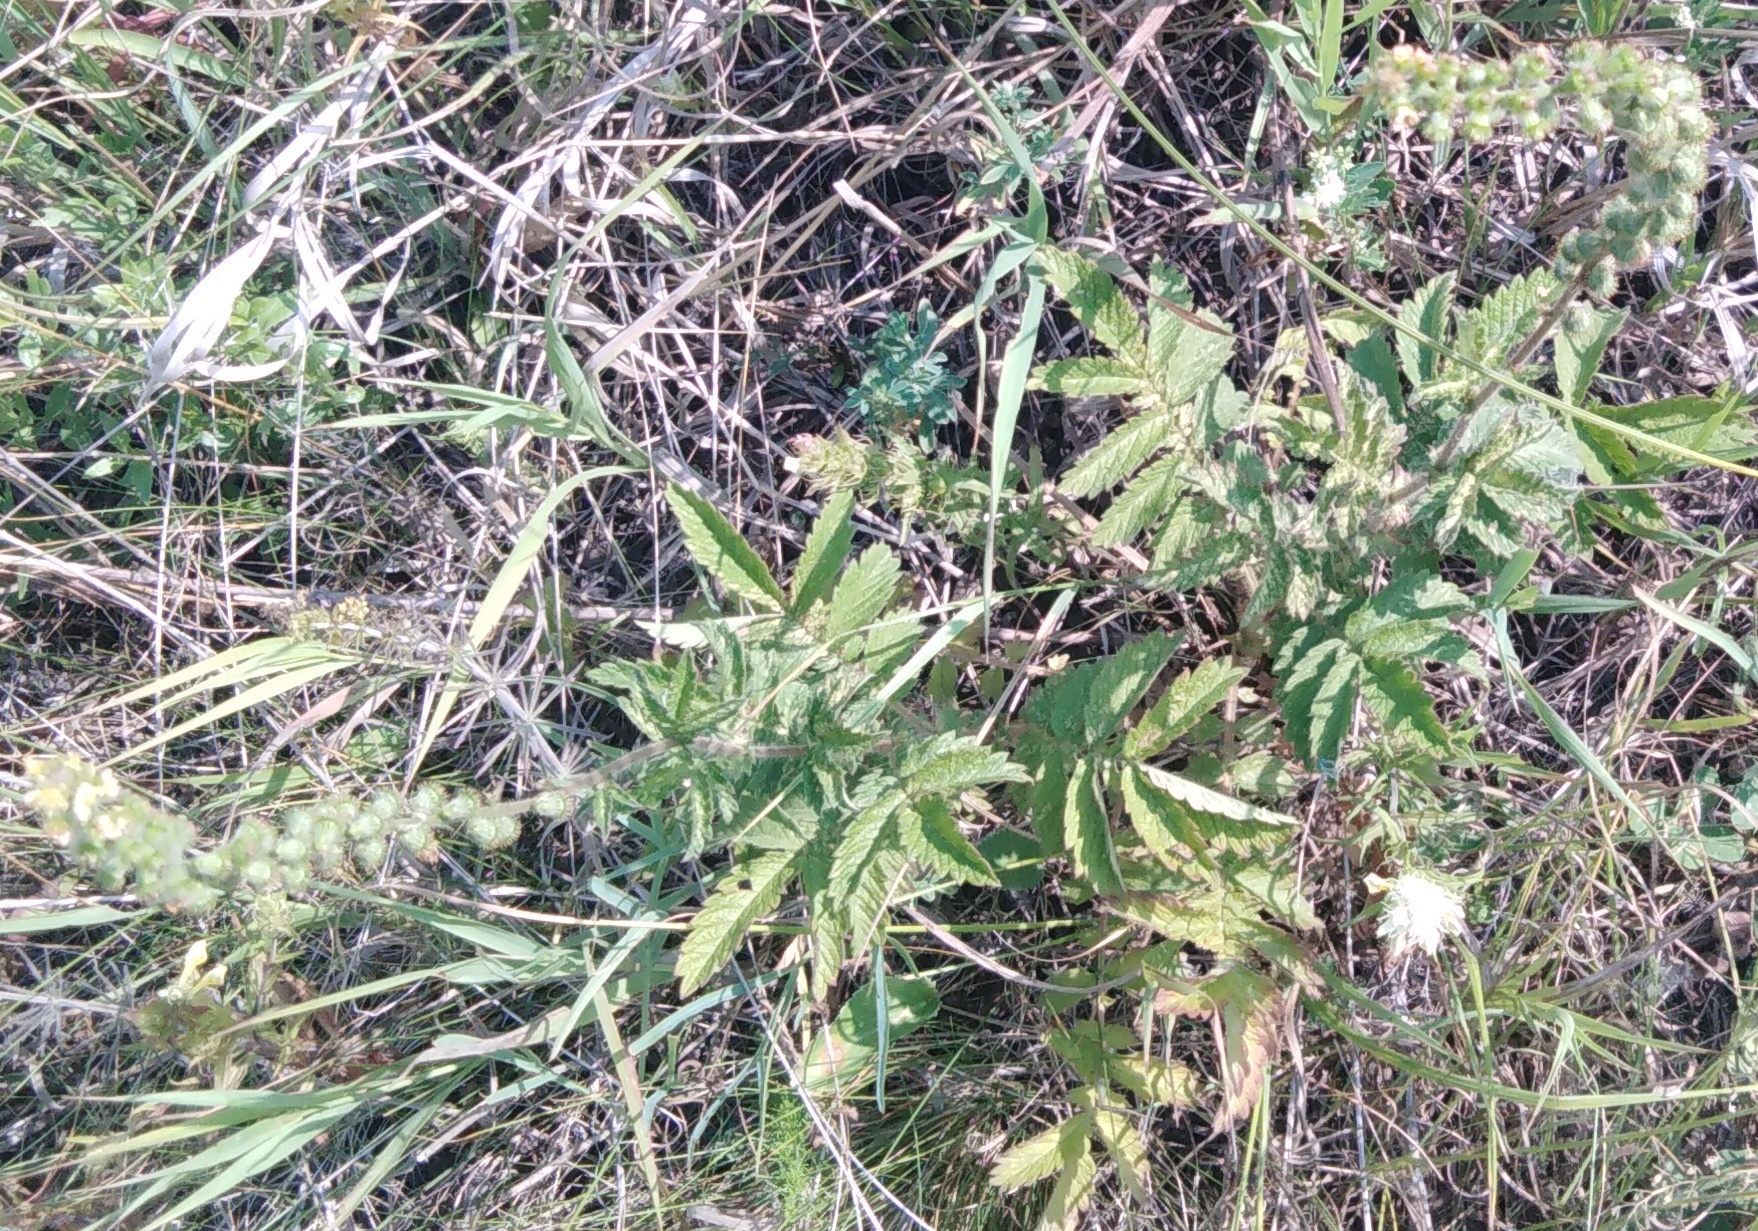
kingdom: Plantae
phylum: Tracheophyta
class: Magnoliopsida
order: Rosales
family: Rosaceae
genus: Agrimonia
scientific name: Agrimonia eupatoria
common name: Agrimony
